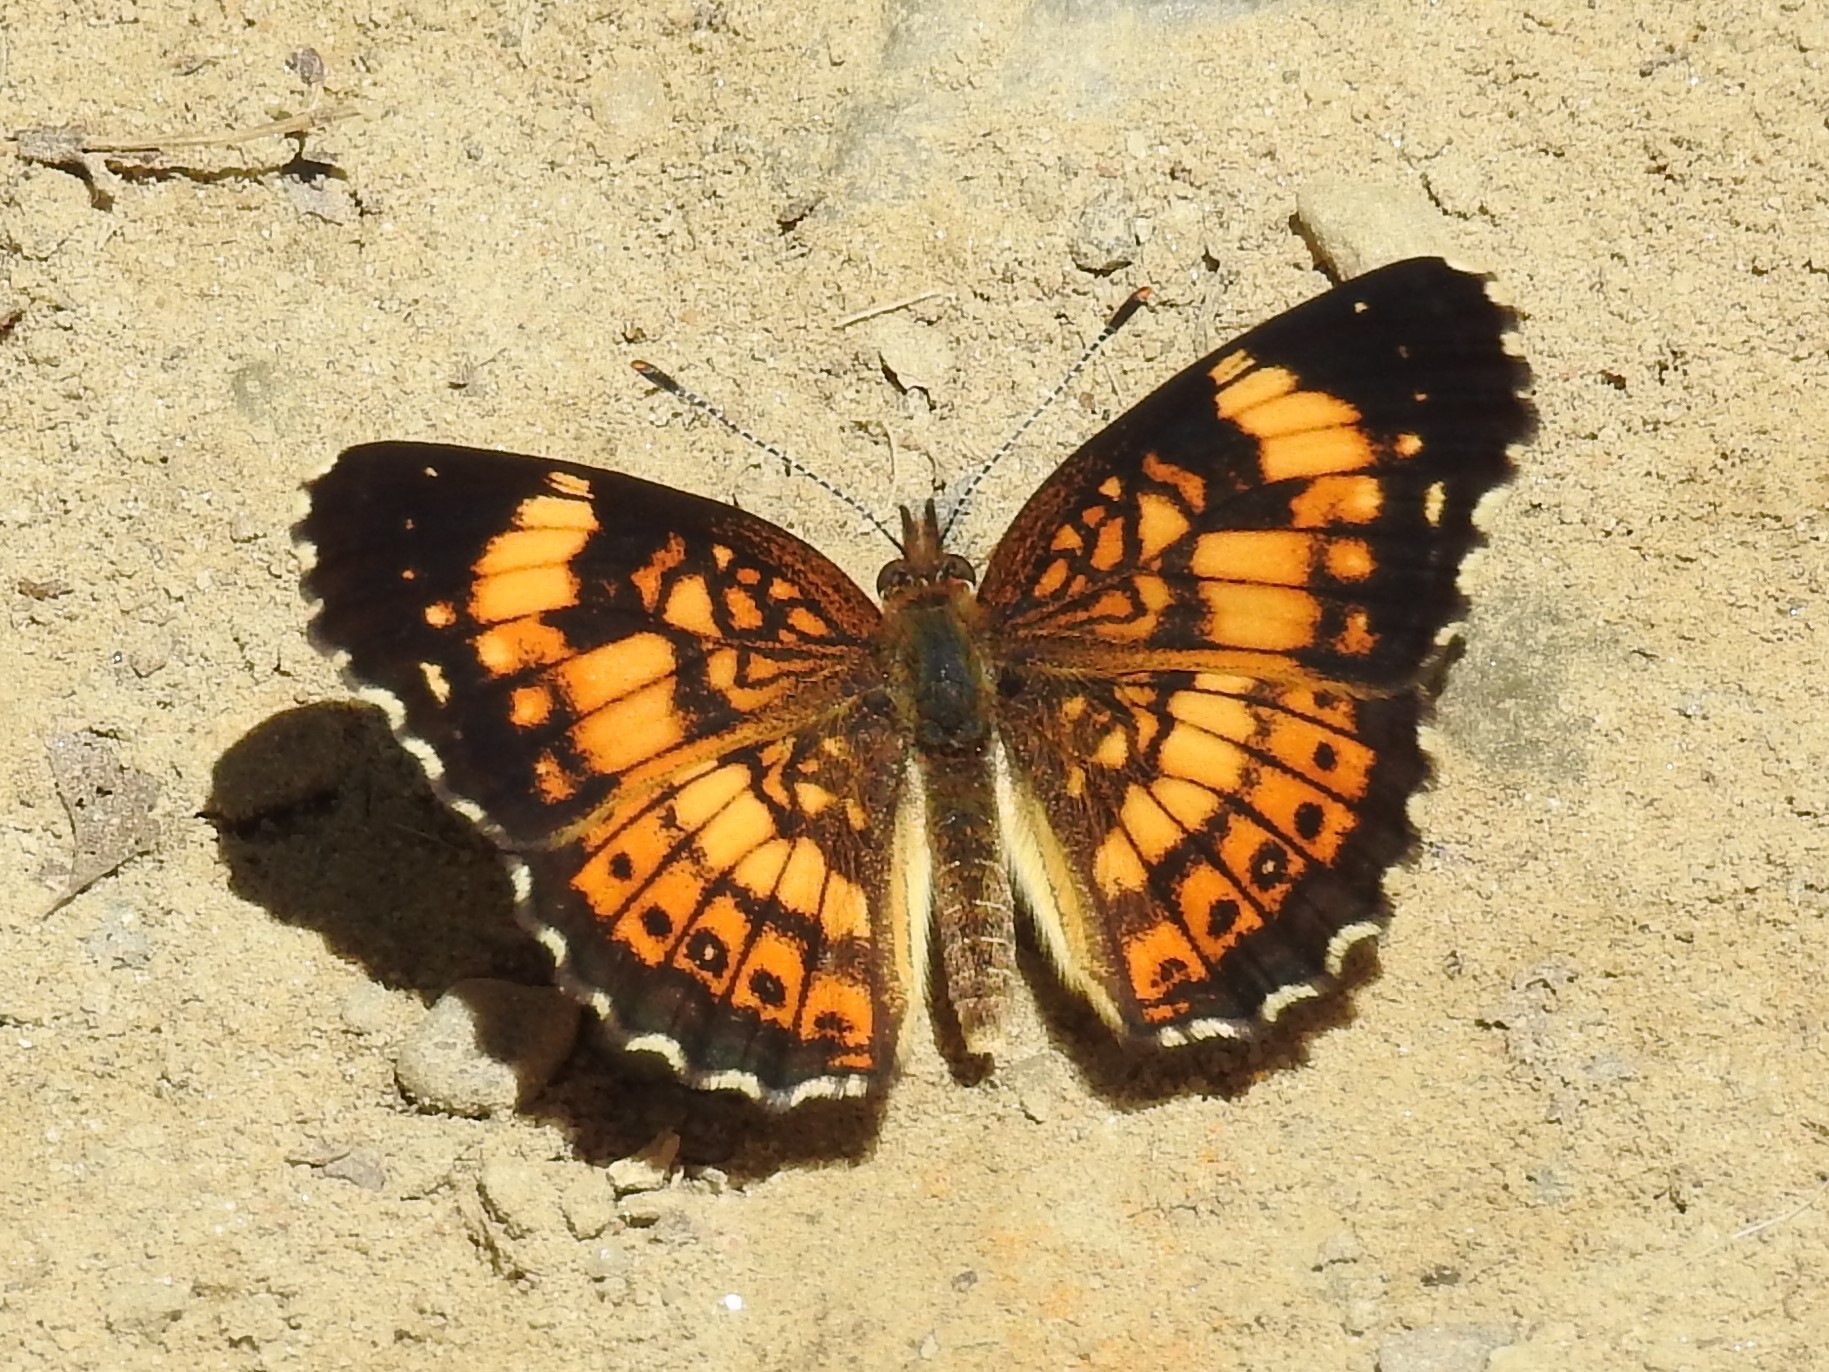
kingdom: Animalia
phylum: Arthropoda
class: Insecta
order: Lepidoptera
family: Nymphalidae
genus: Chlosyne
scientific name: Chlosyne nycteis
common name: Silvery checkerspot
